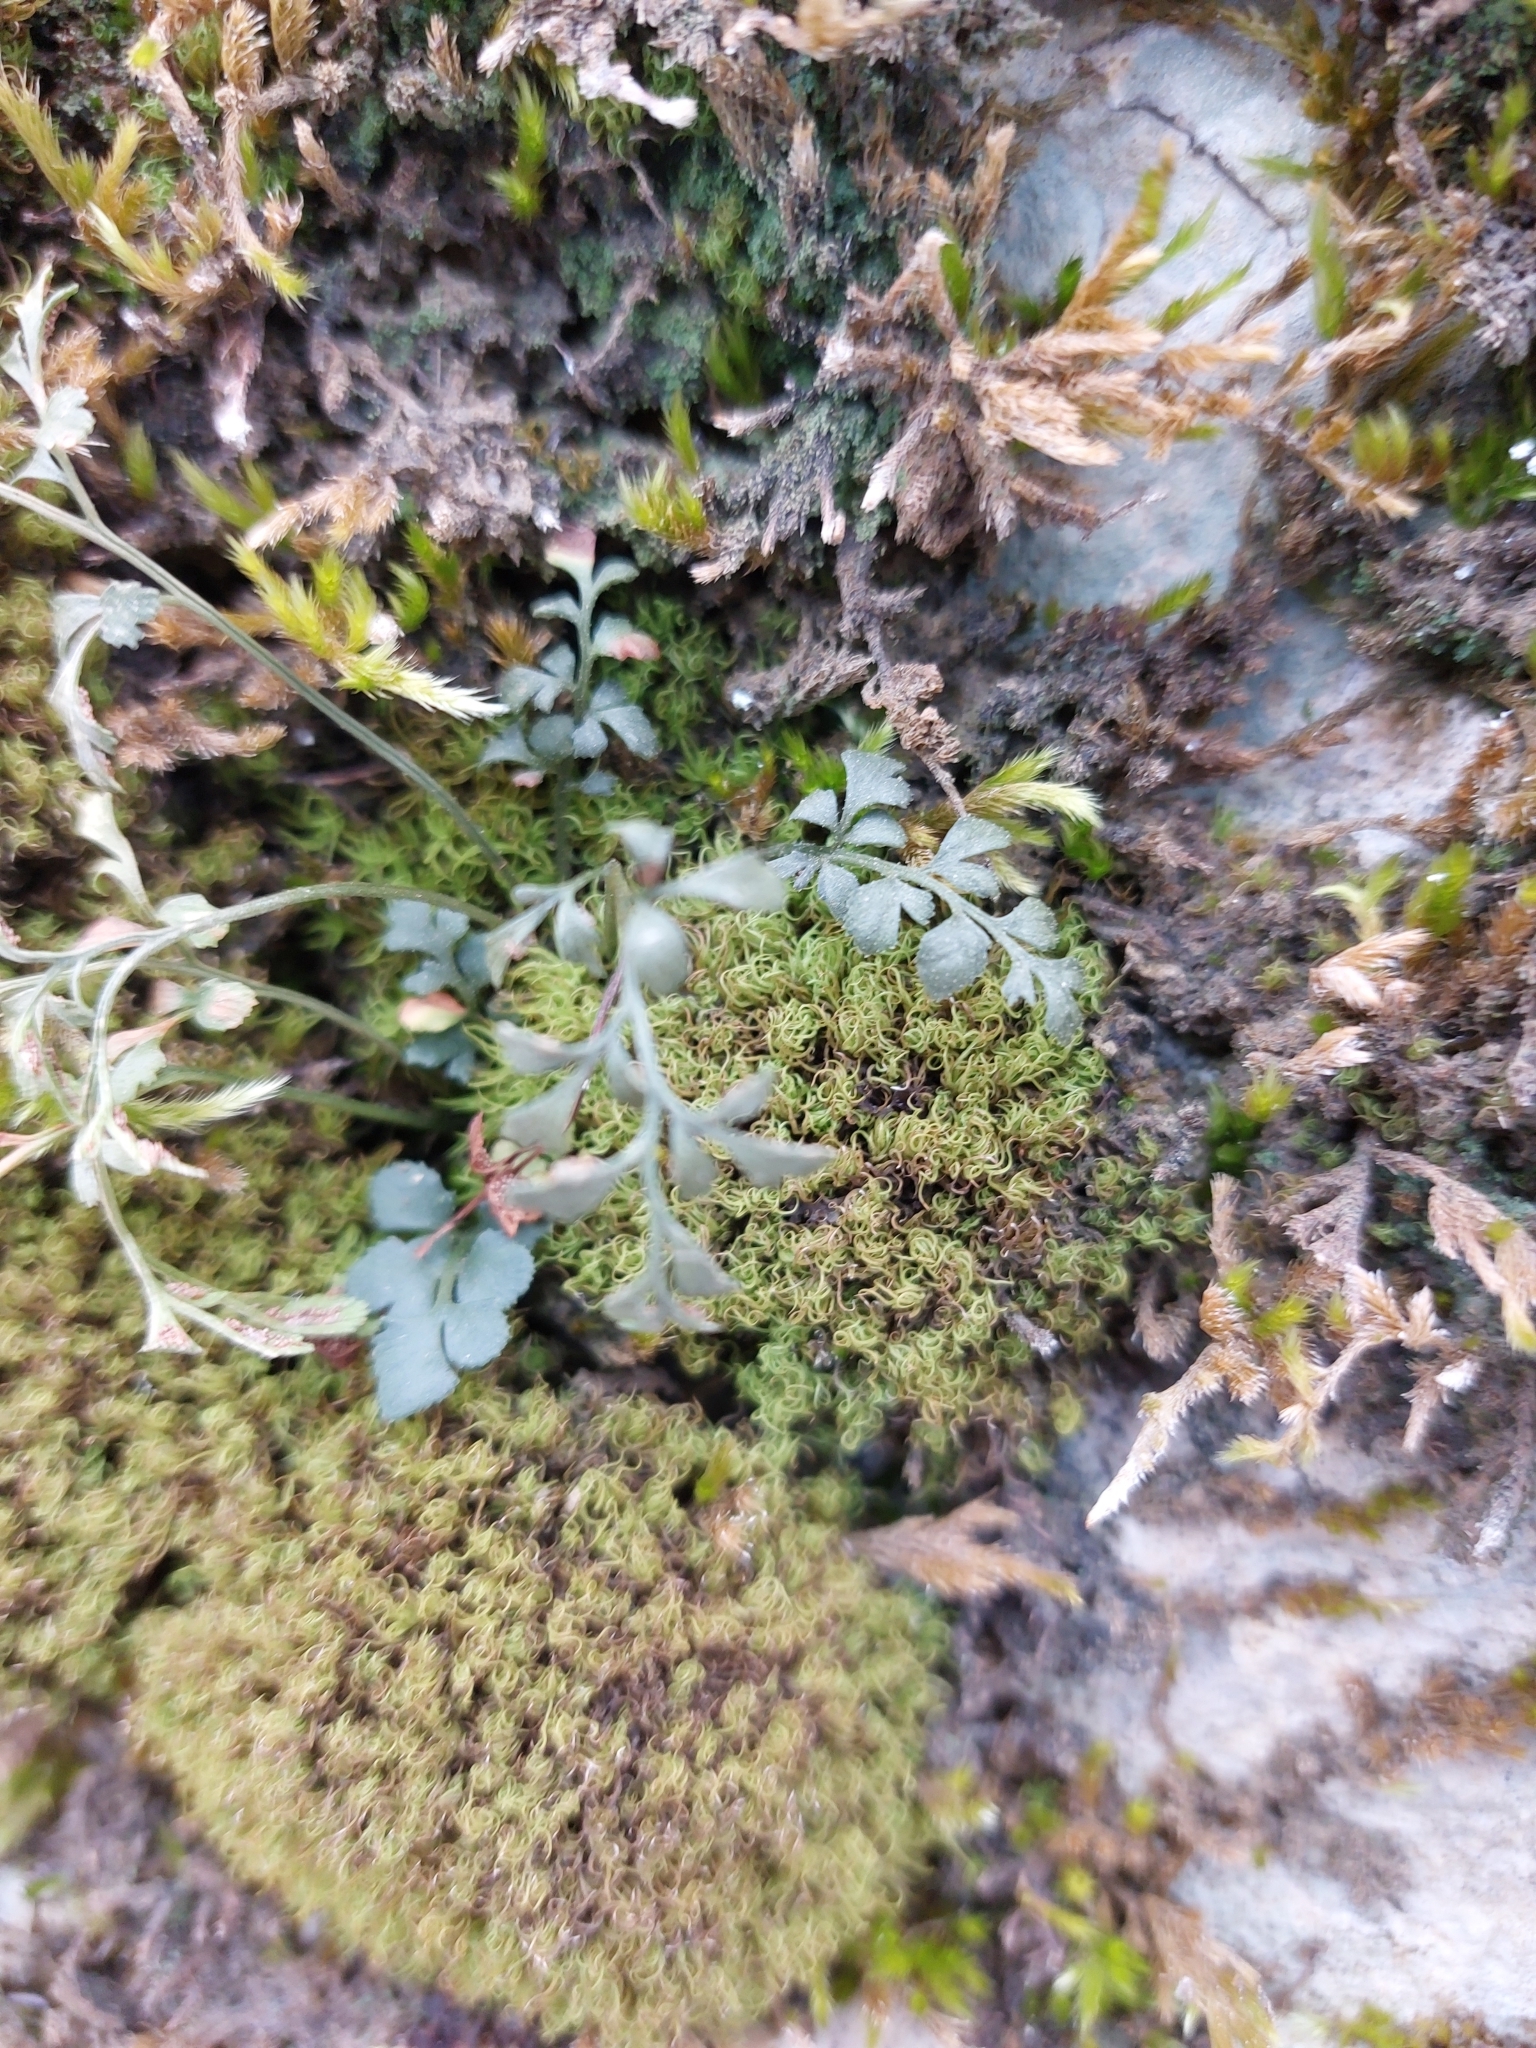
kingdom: Plantae
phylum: Tracheophyta
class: Polypodiopsida
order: Polypodiales
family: Aspleniaceae
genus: Asplenium
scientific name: Asplenium ruta-muraria
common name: Wall-rue
